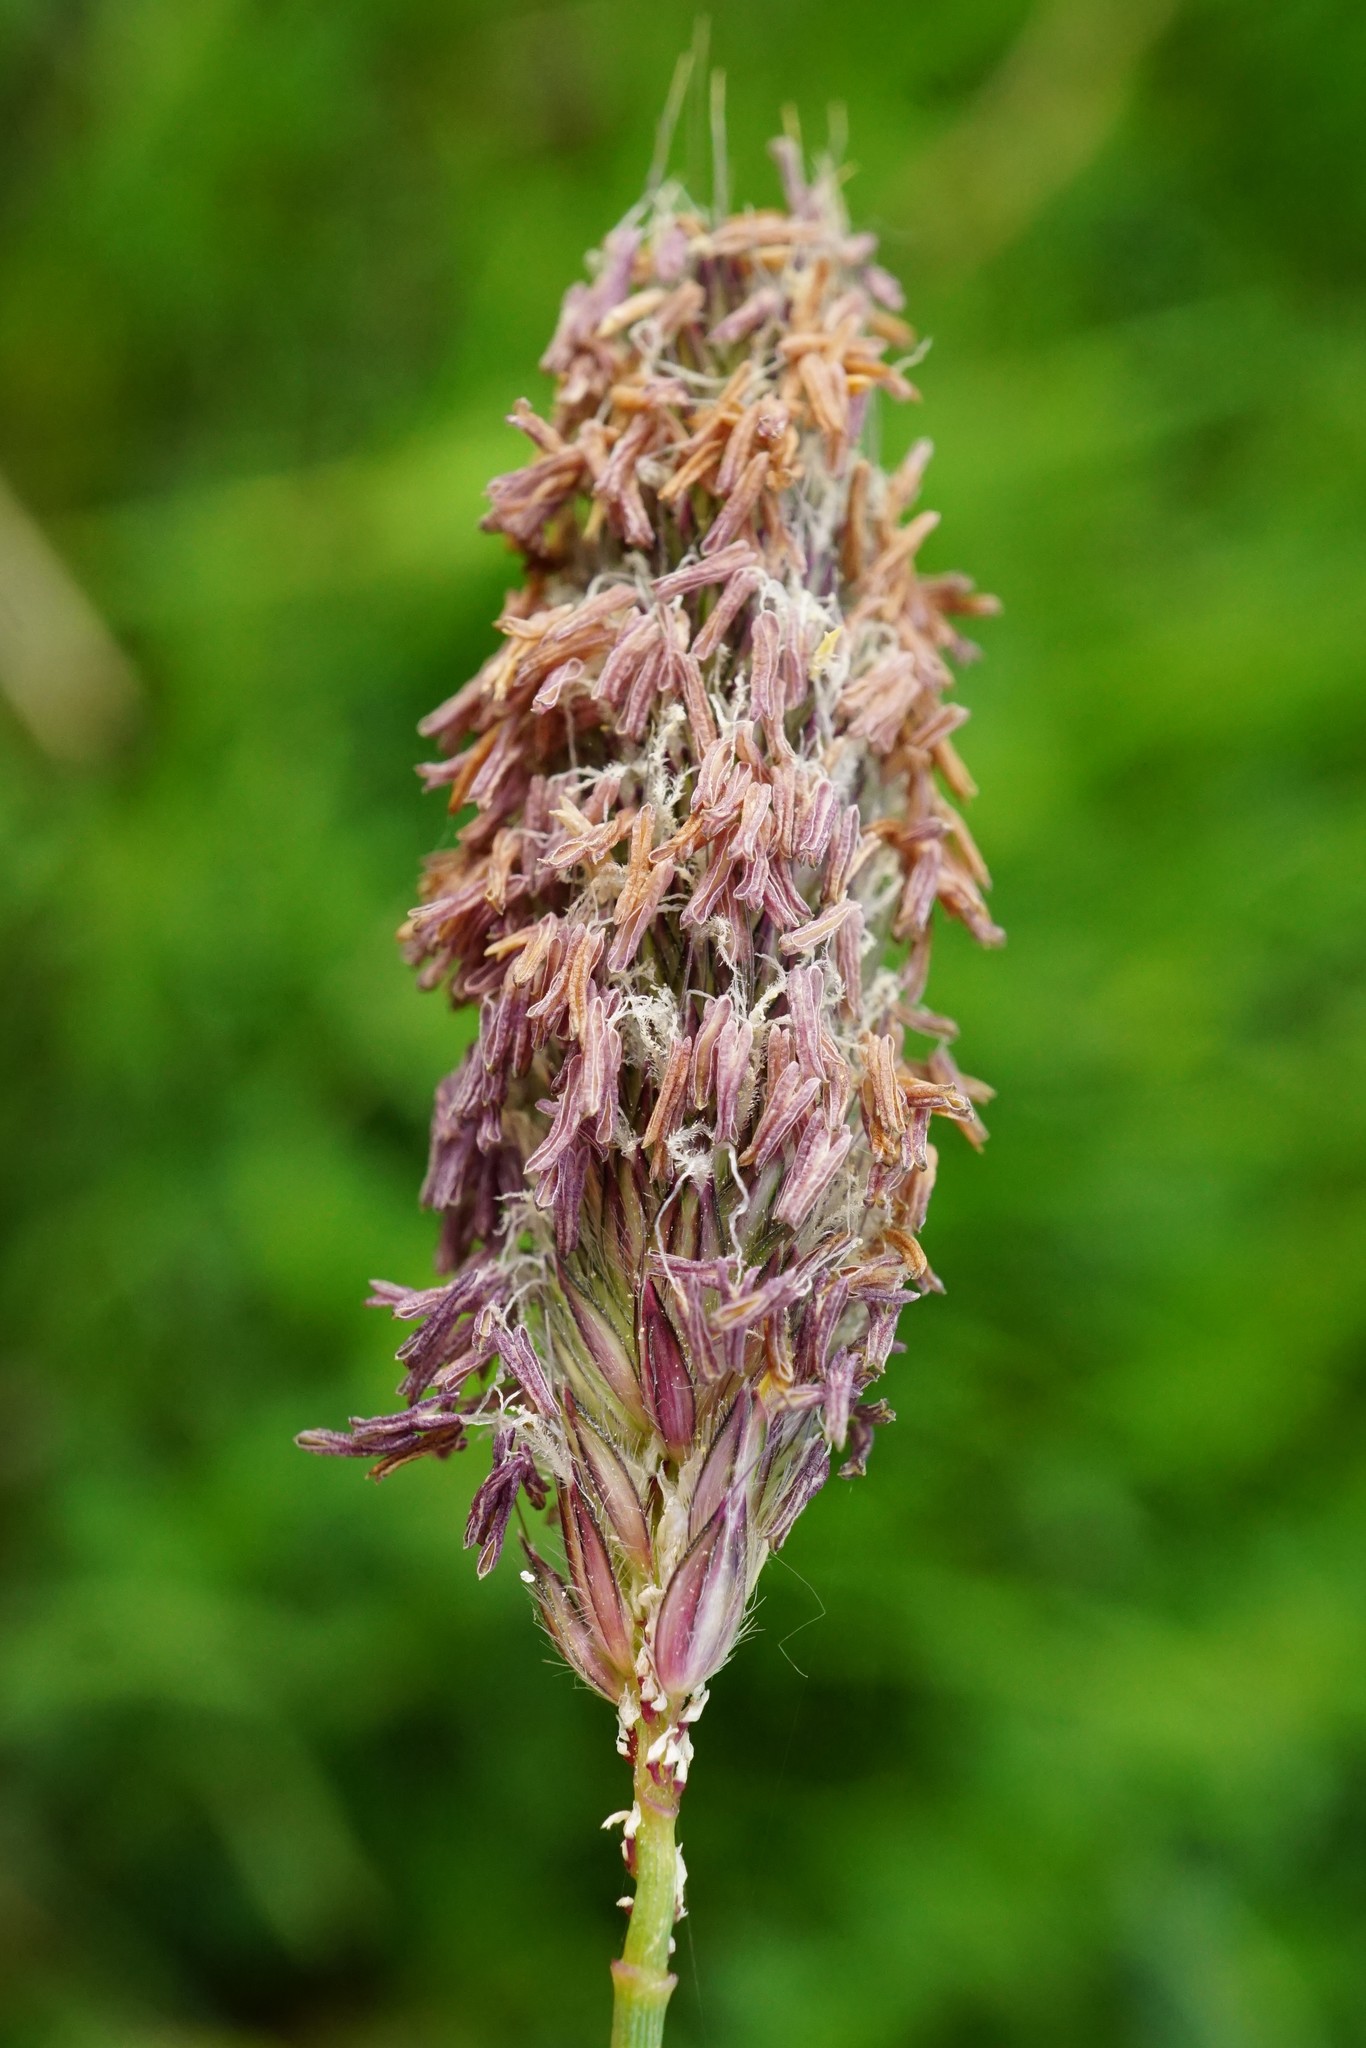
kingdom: Plantae
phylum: Tracheophyta
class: Liliopsida
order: Poales
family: Poaceae
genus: Alopecurus
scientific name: Alopecurus pratensis
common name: Meadow foxtail
